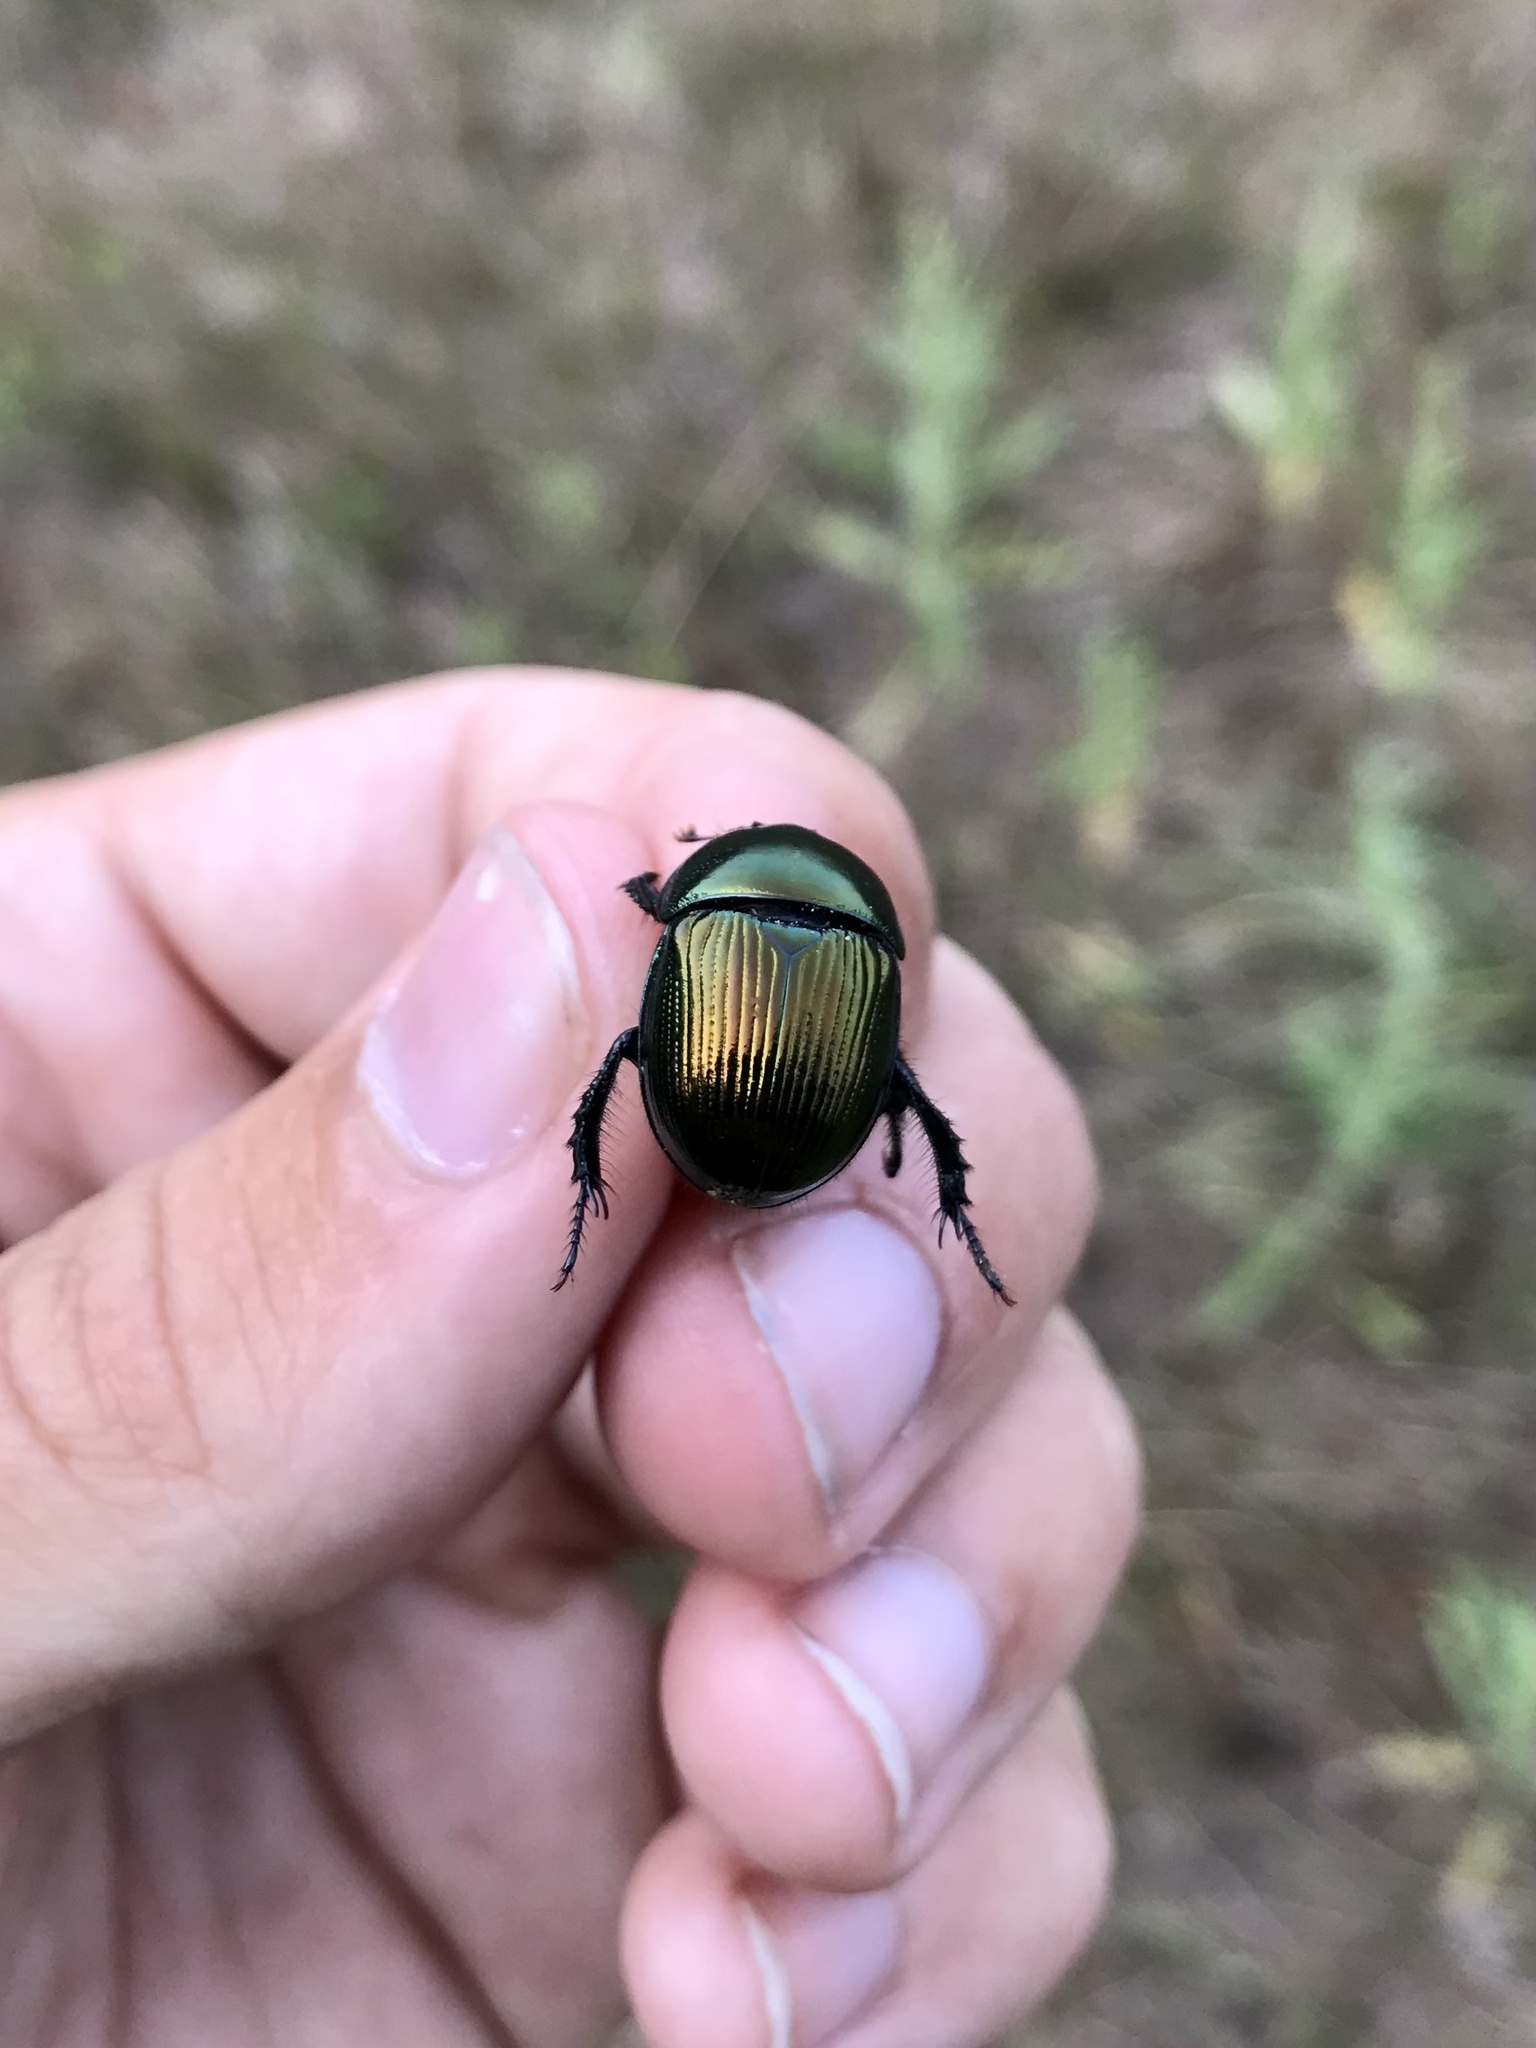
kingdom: Animalia
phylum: Arthropoda
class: Insecta
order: Coleoptera
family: Geotrupidae
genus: Geotrupes
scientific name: Geotrupes splendidus
